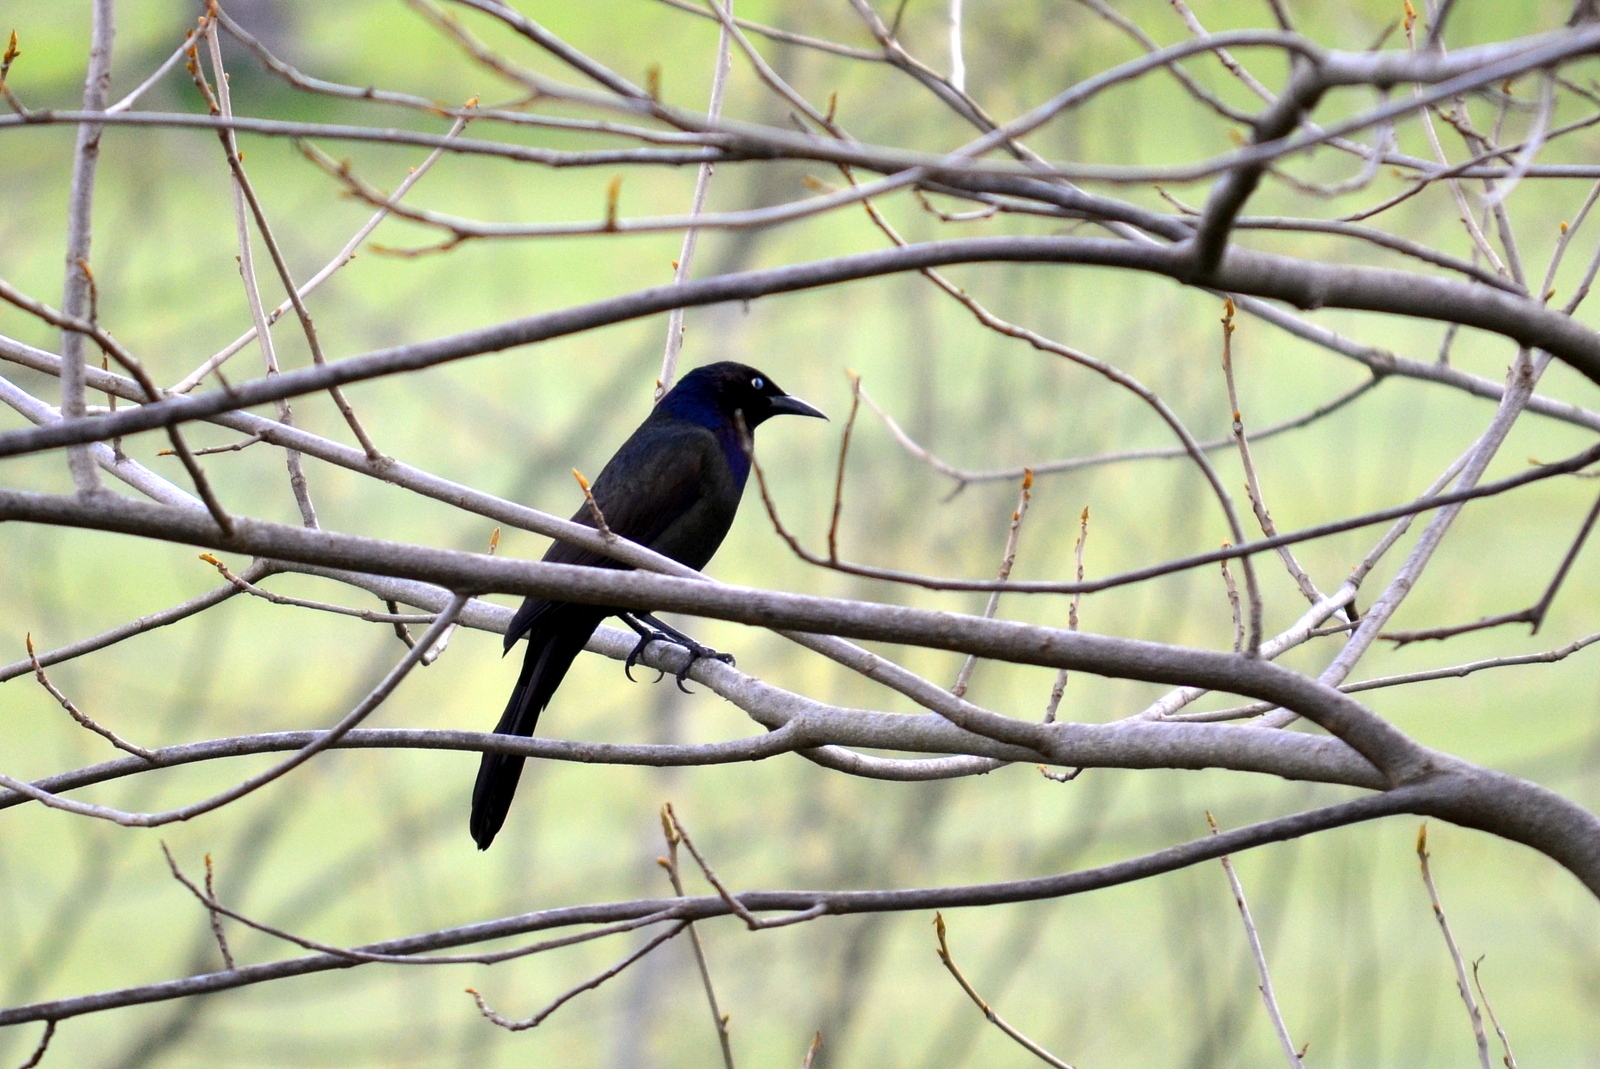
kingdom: Animalia
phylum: Chordata
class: Aves
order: Passeriformes
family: Icteridae
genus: Quiscalus
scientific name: Quiscalus quiscula
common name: Common grackle
